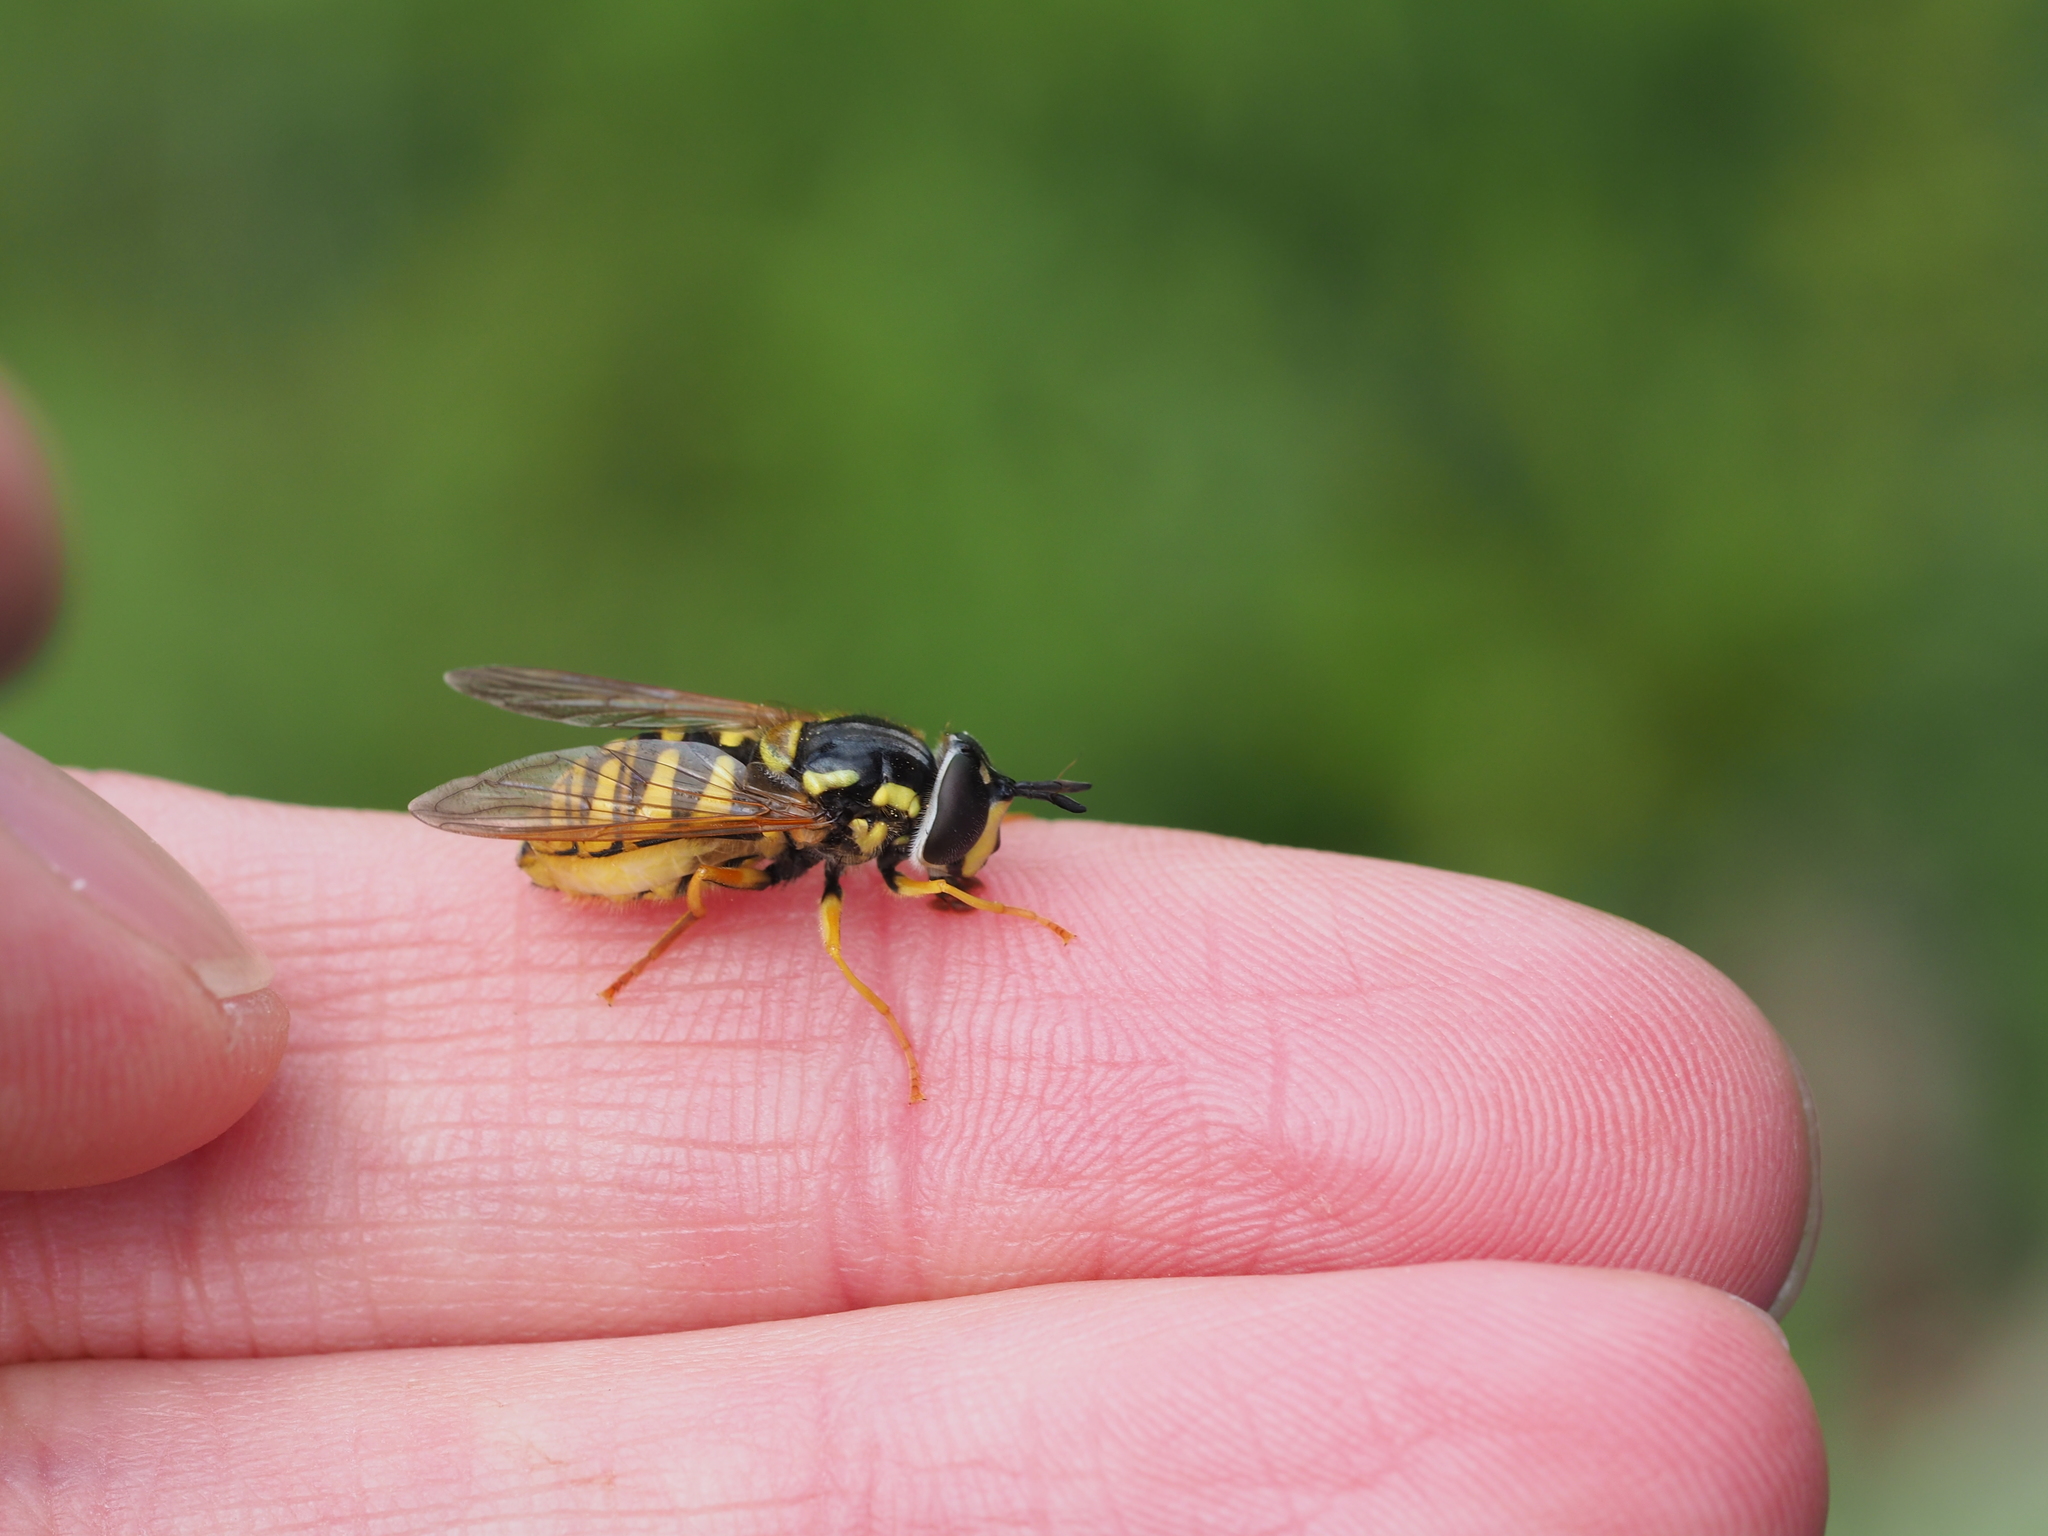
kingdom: Animalia
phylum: Arthropoda
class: Insecta
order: Diptera
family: Syrphidae
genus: Chrysotoxum
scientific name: Chrysotoxum cautum
